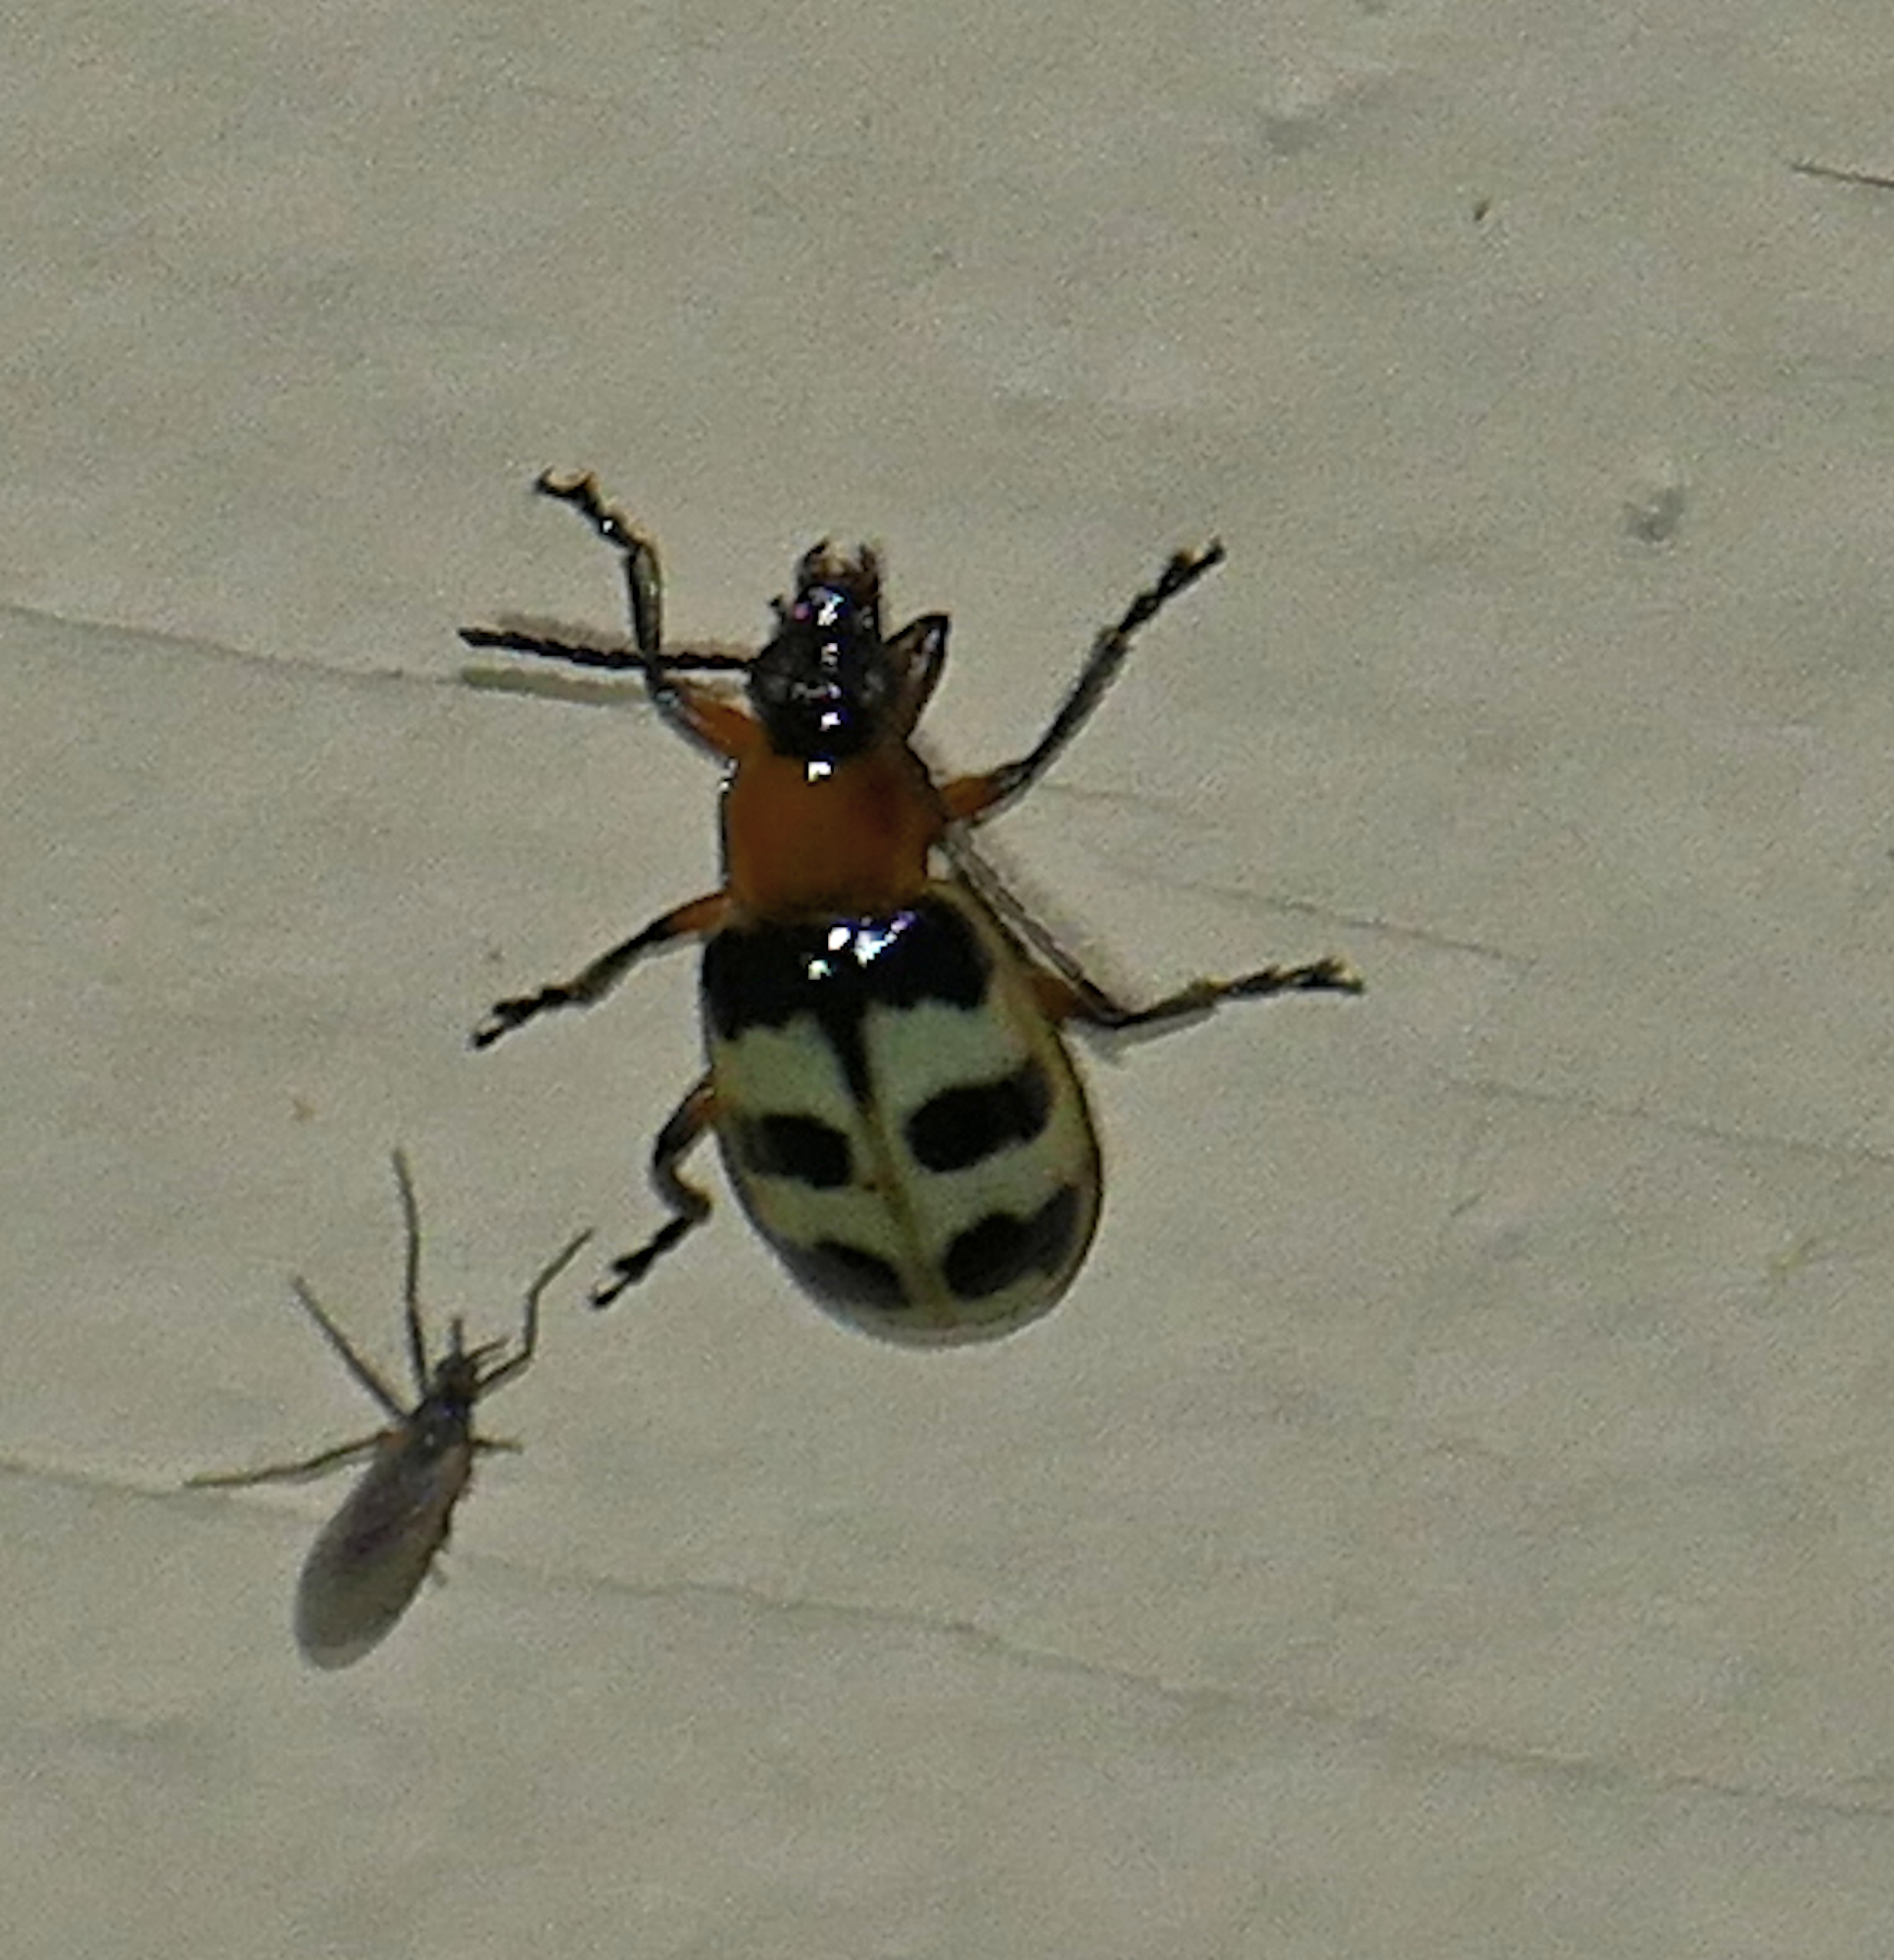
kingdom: Animalia
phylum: Arthropoda
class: Insecta
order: Coleoptera
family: Chrysomelidae
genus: Paranapiacaba
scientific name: Paranapiacaba tricincta
